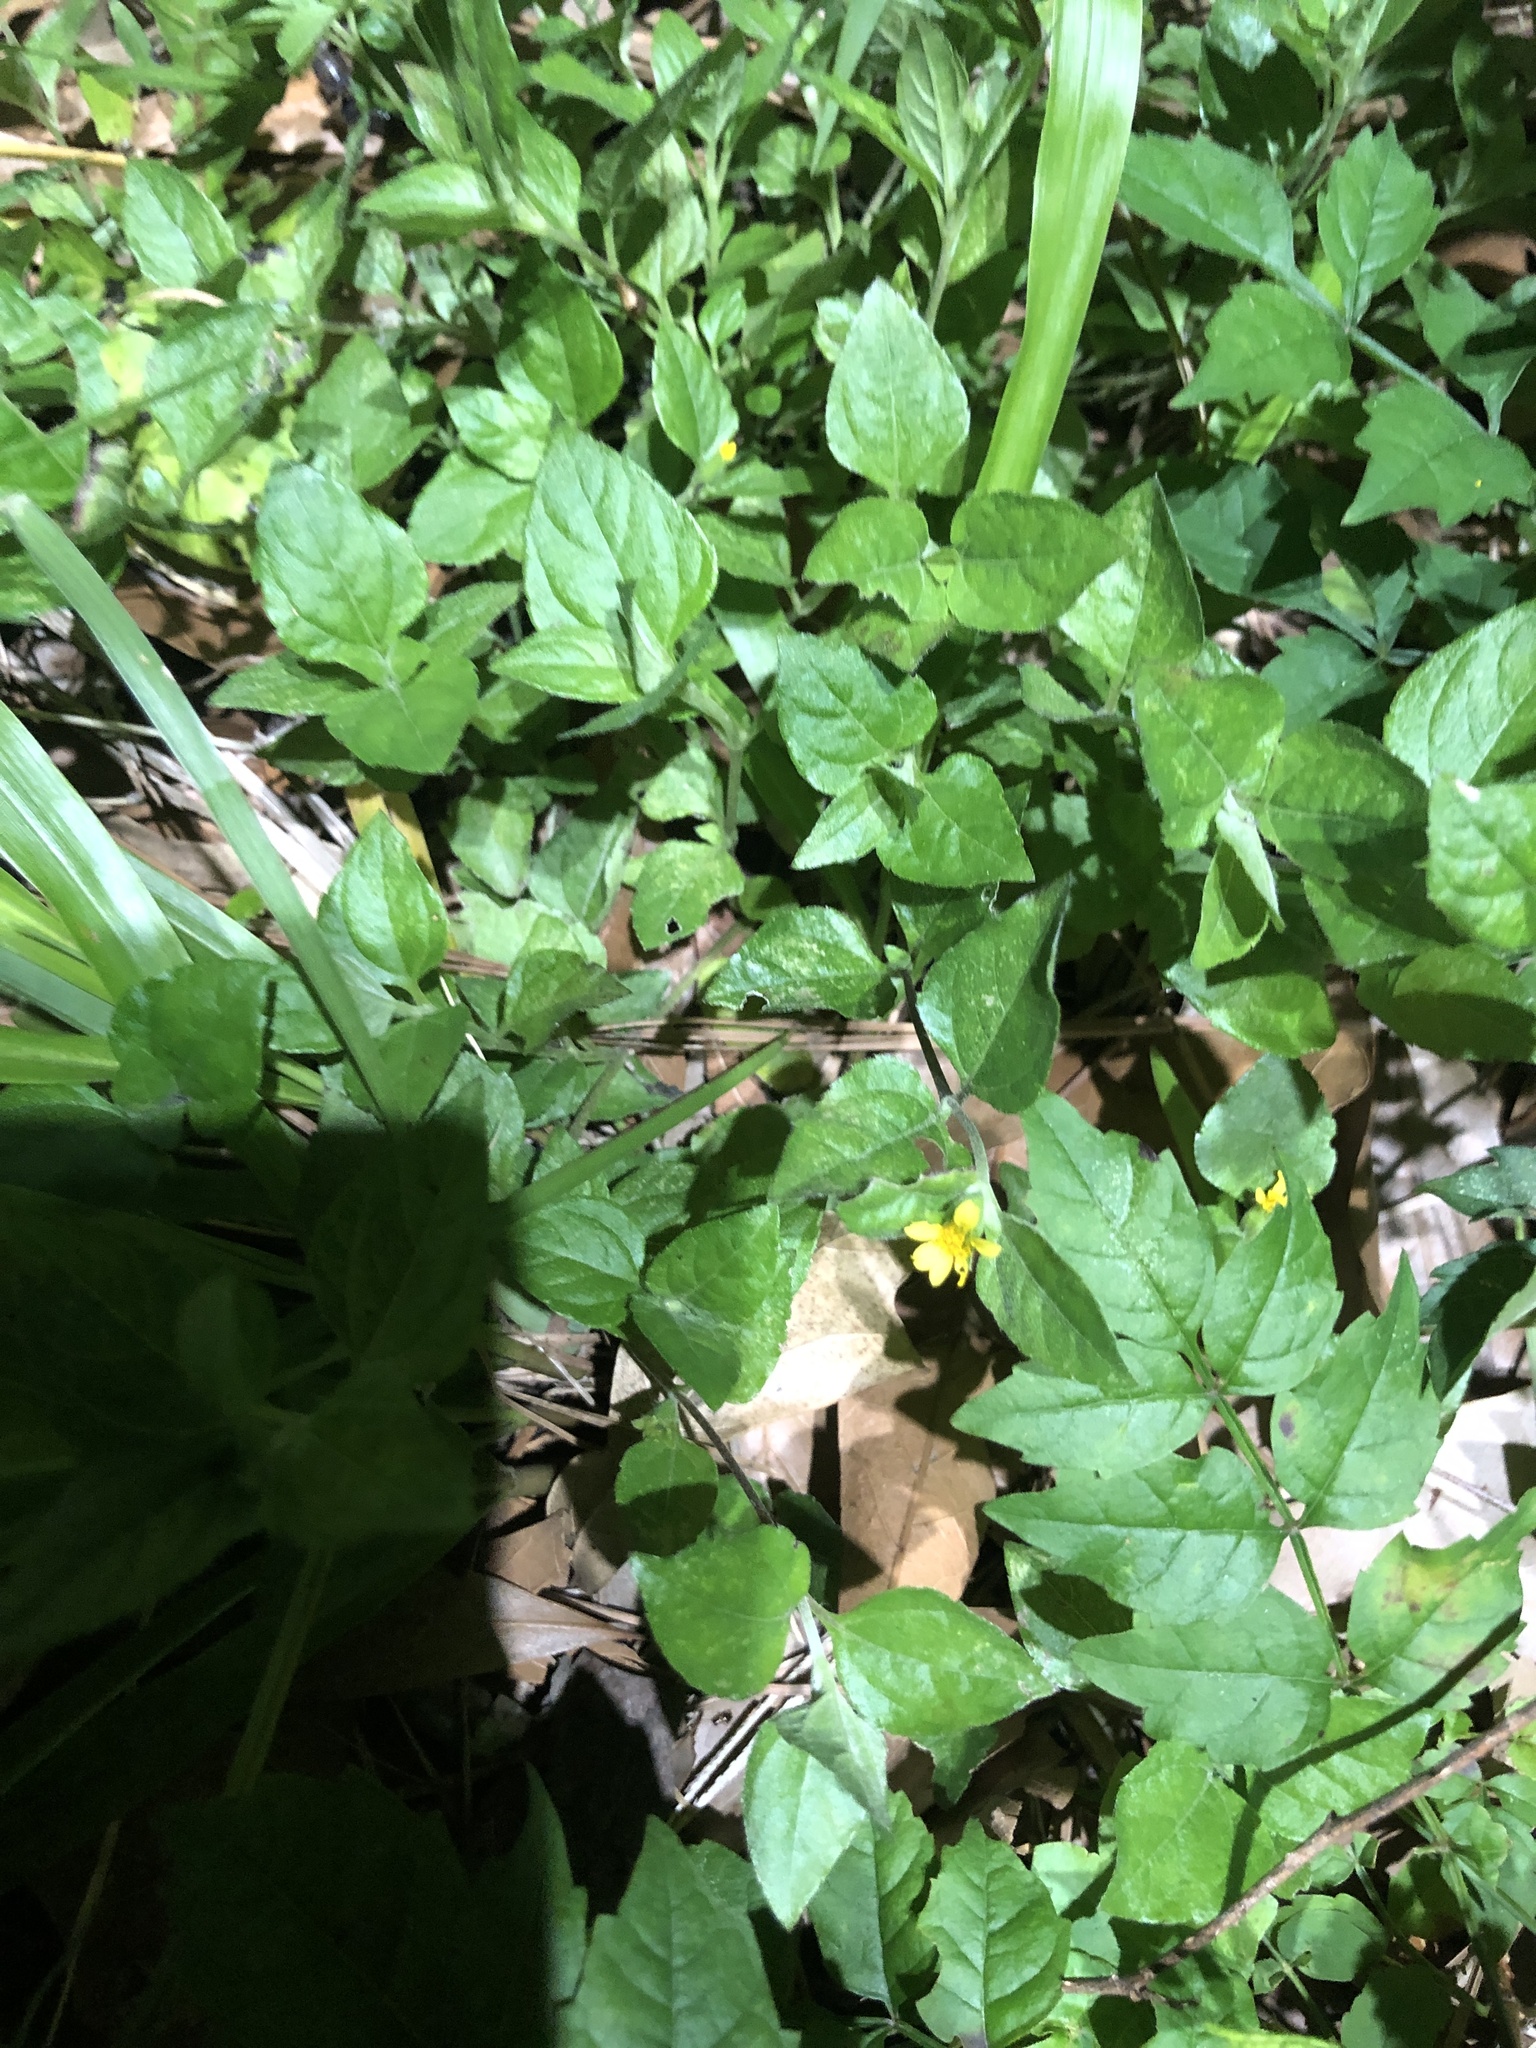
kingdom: Plantae
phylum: Tracheophyta
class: Magnoliopsida
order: Asterales
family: Asteraceae
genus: Calyptocarpus
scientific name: Calyptocarpus vialis
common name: Straggler daisy
